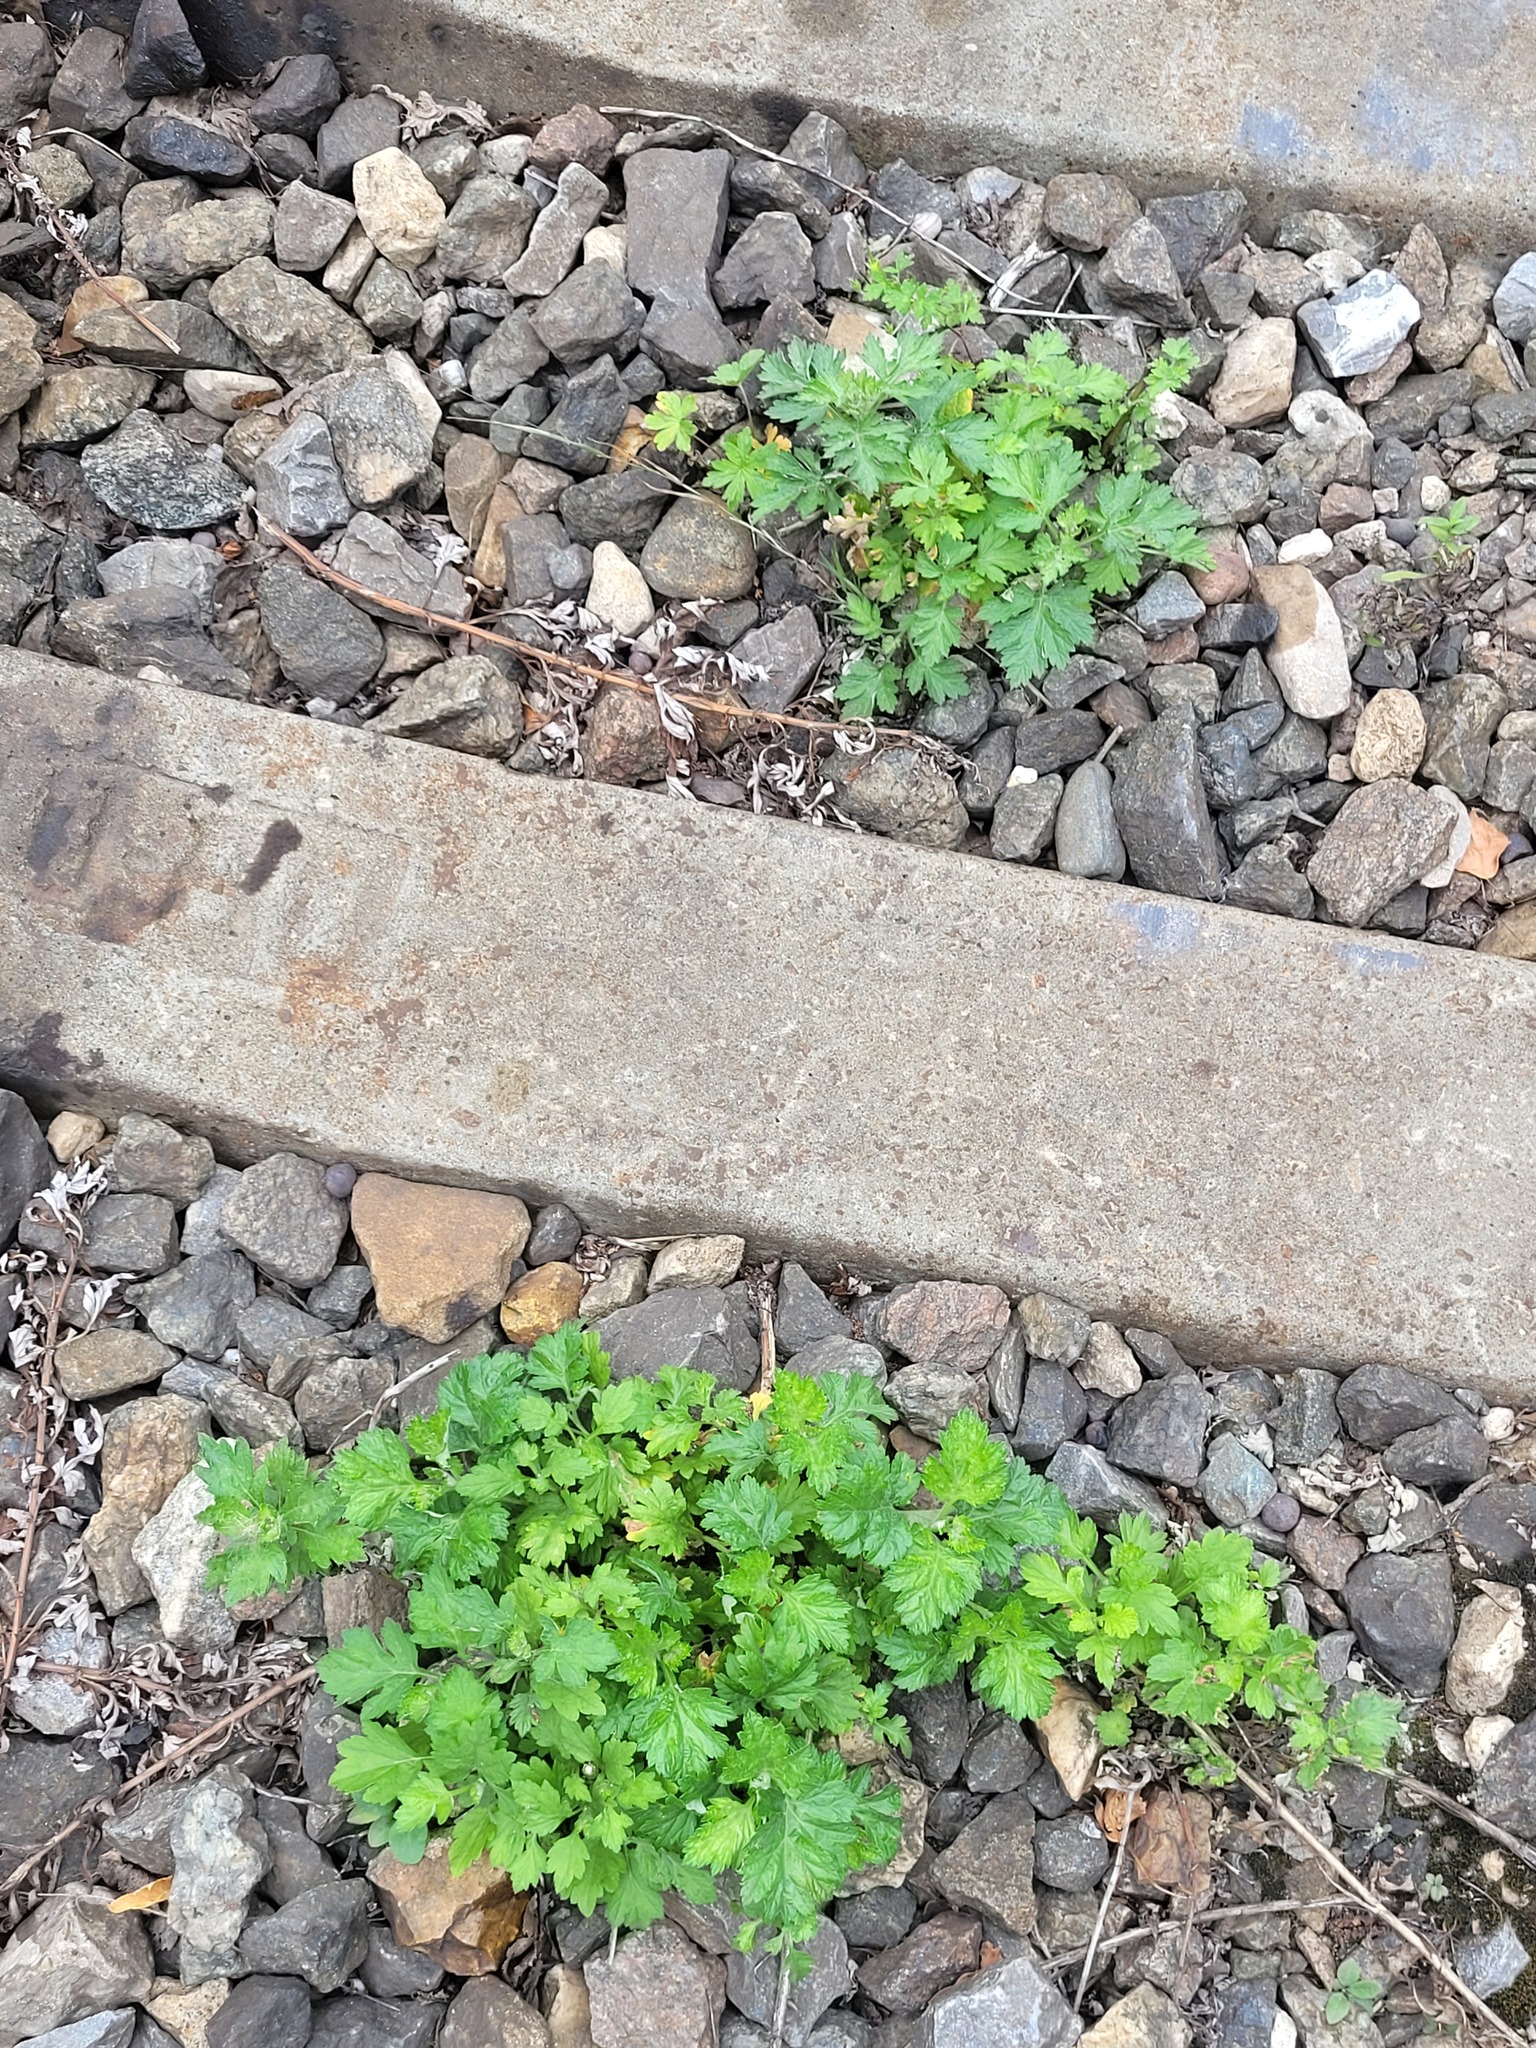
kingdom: Plantae
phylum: Tracheophyta
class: Magnoliopsida
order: Asterales
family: Asteraceae
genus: Artemisia
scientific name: Artemisia vulgaris
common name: Mugwort
